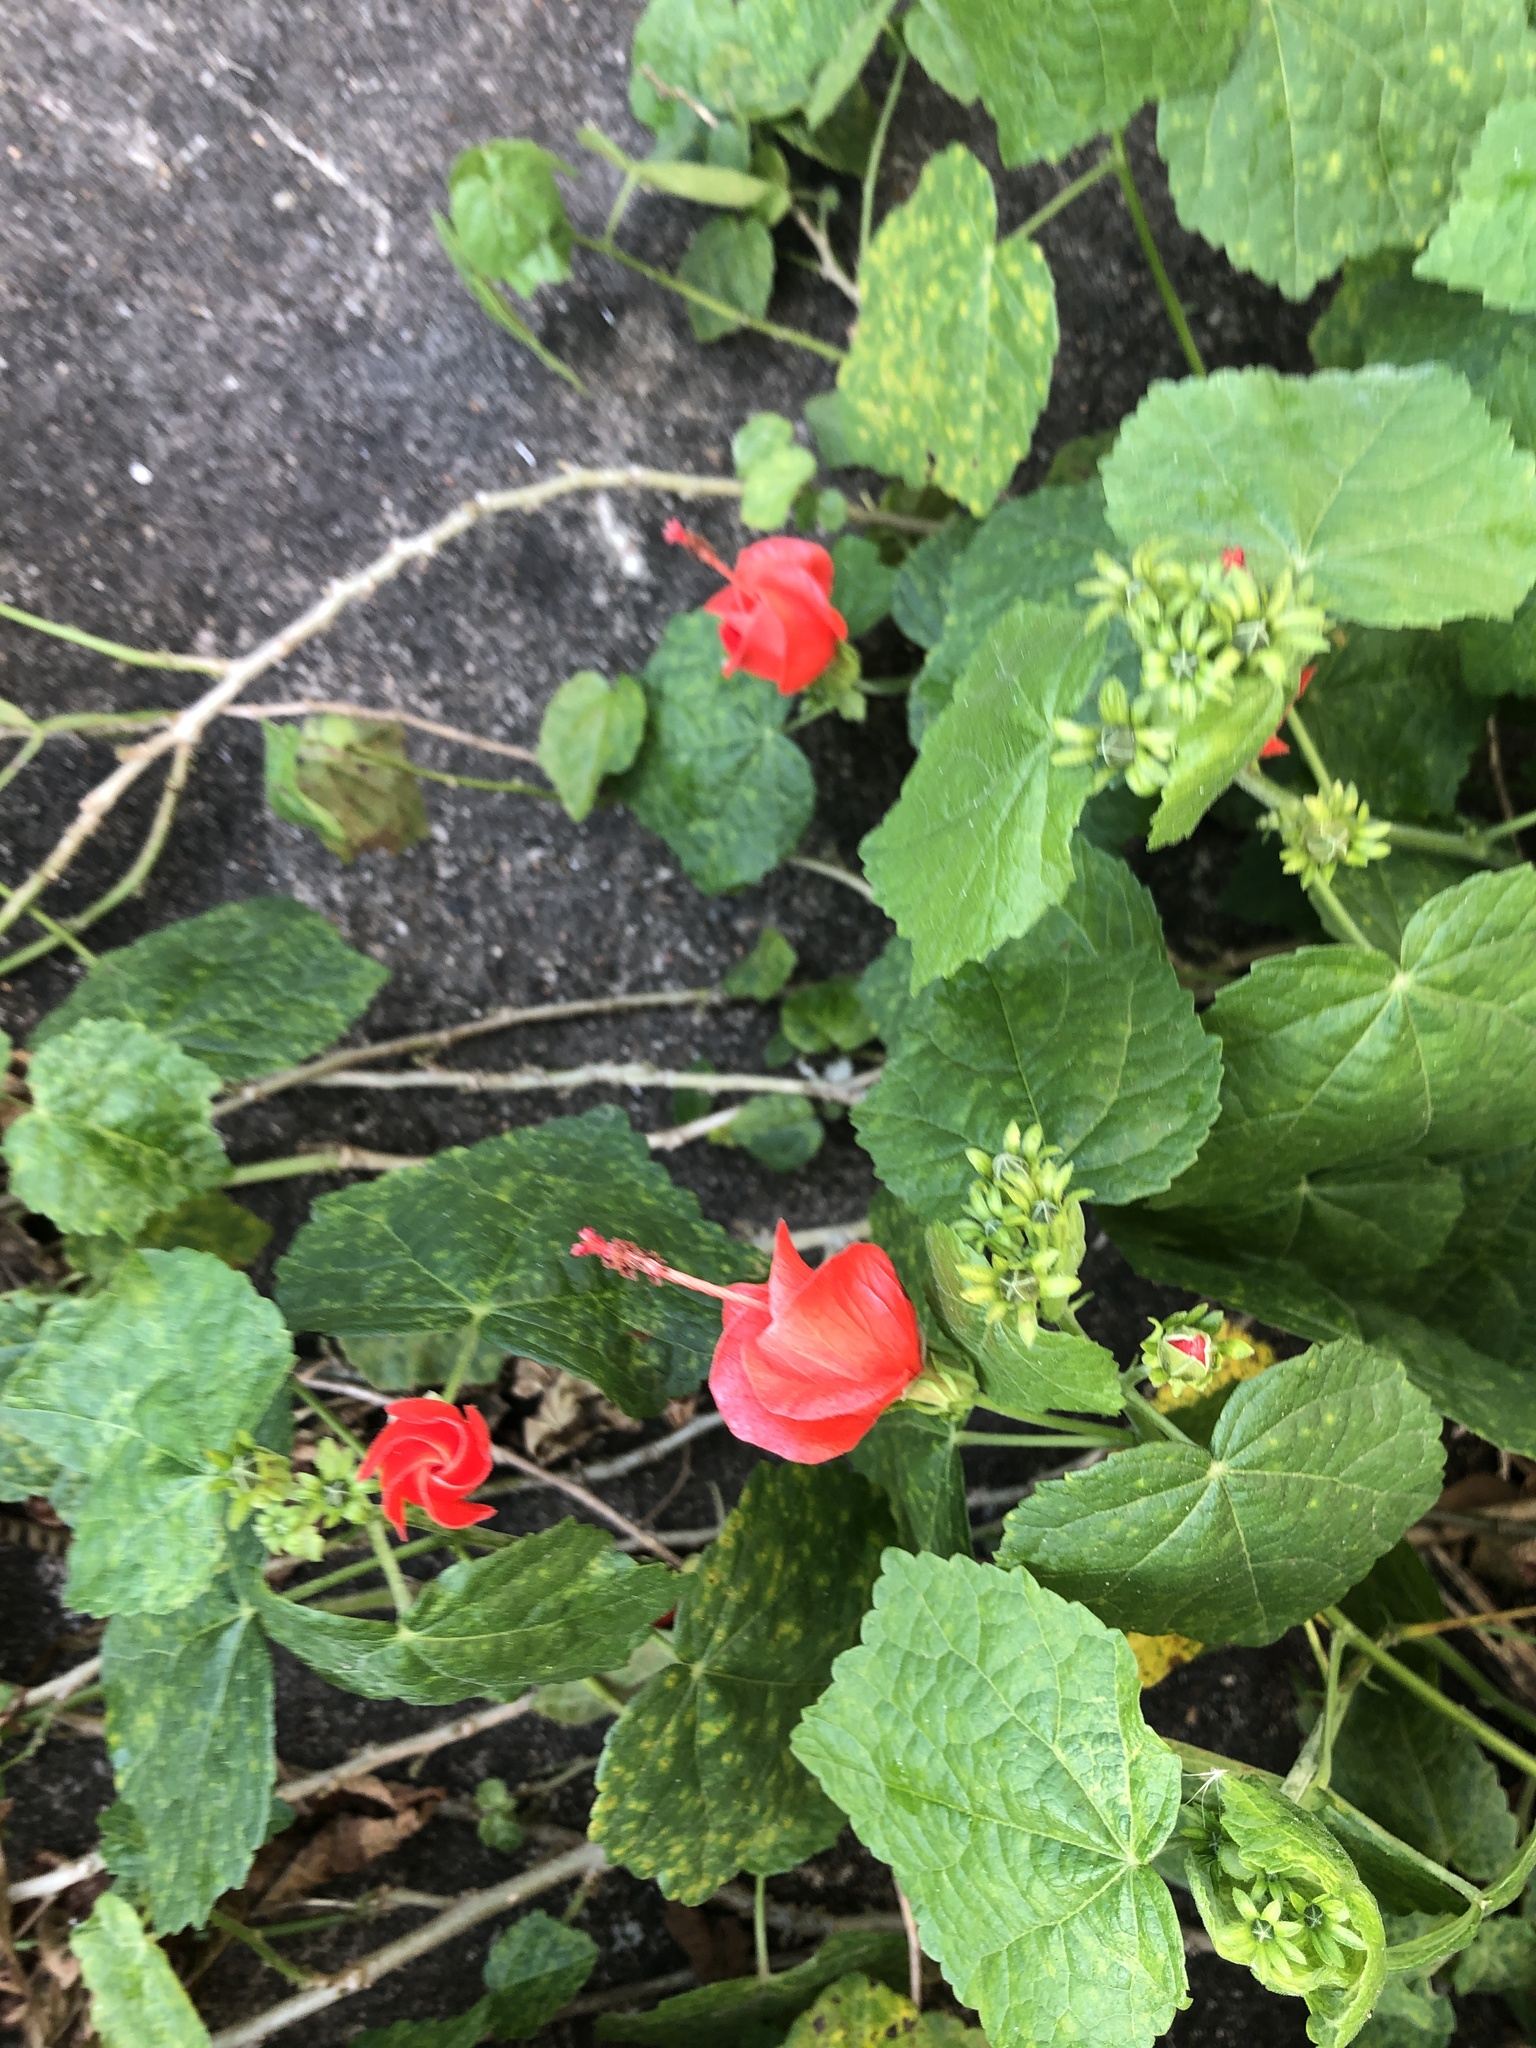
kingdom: Plantae
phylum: Tracheophyta
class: Magnoliopsida
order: Malvales
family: Malvaceae
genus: Malvaviscus
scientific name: Malvaviscus arboreus
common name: Wax mallow
